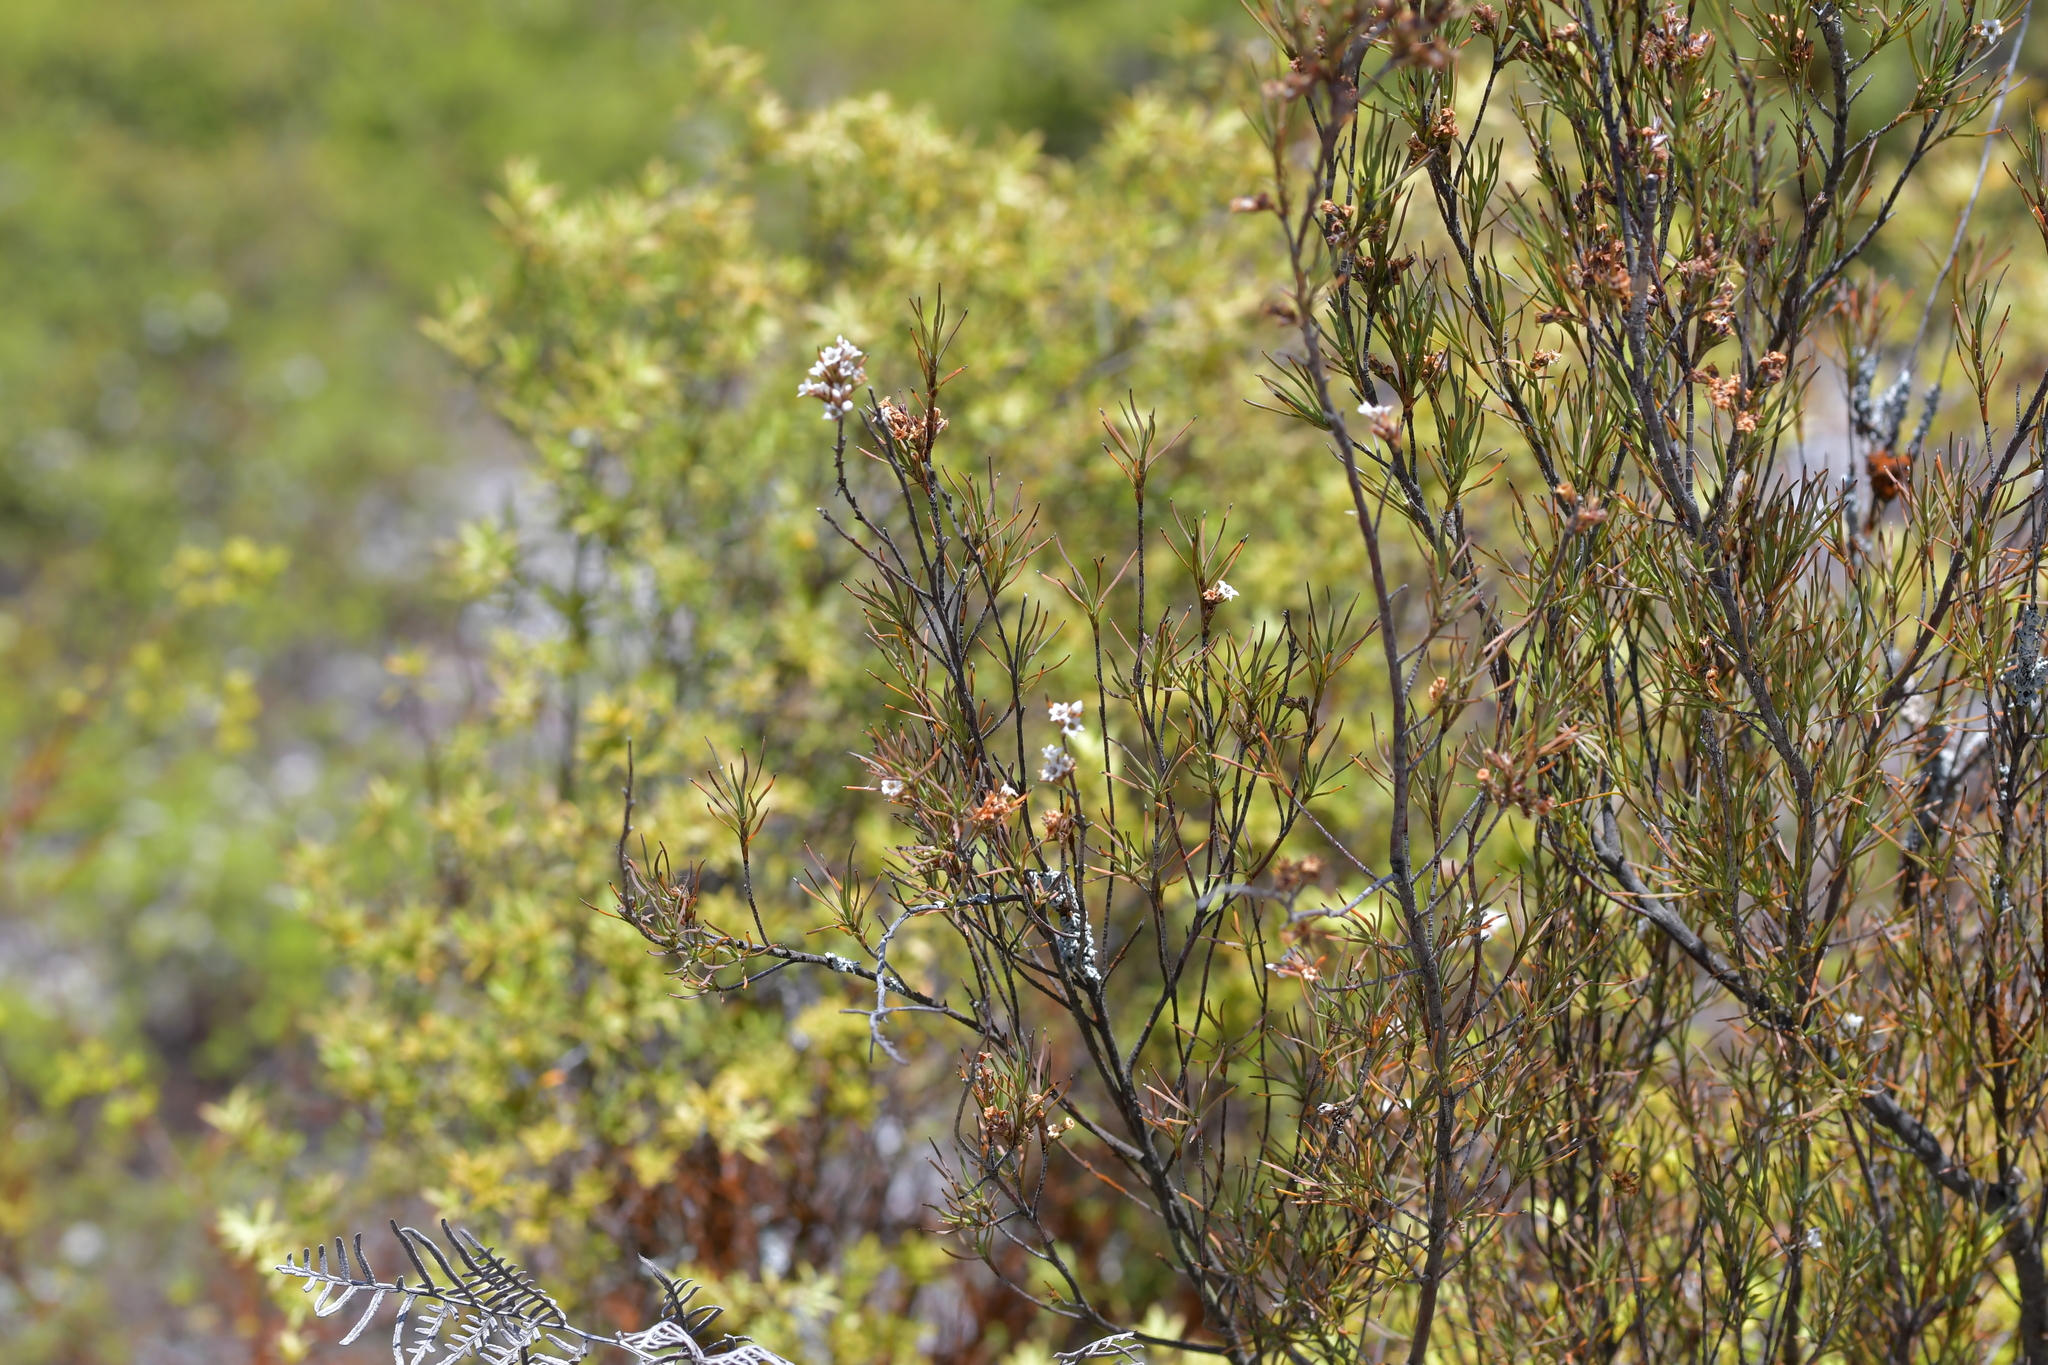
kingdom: Plantae
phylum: Tracheophyta
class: Magnoliopsida
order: Ericales
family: Ericaceae
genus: Dracophyllum
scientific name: Dracophyllum subulatum
